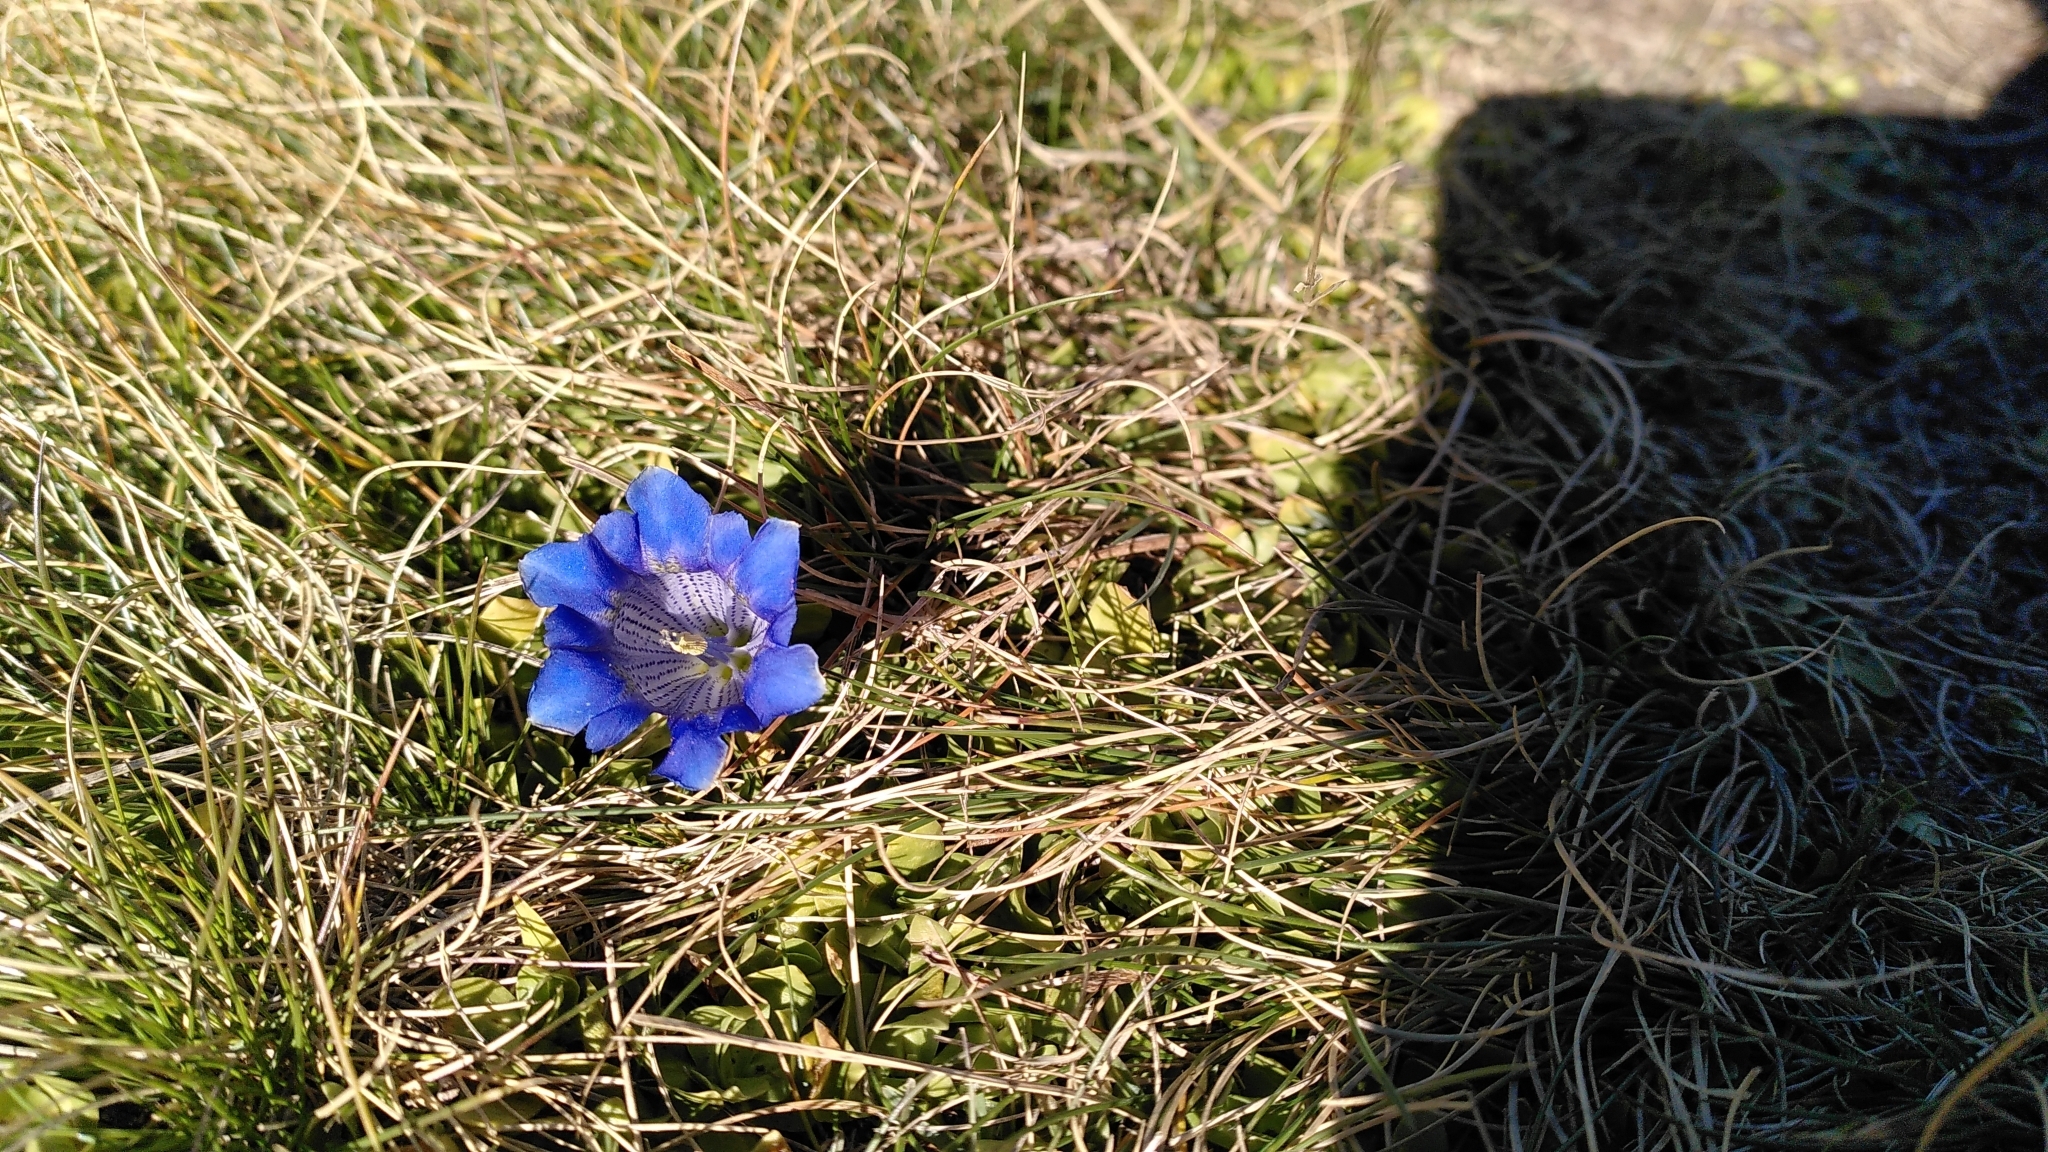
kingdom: Plantae
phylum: Tracheophyta
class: Magnoliopsida
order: Gentianales
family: Gentianaceae
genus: Gentiana
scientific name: Gentiana alpina
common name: Southern gentian
